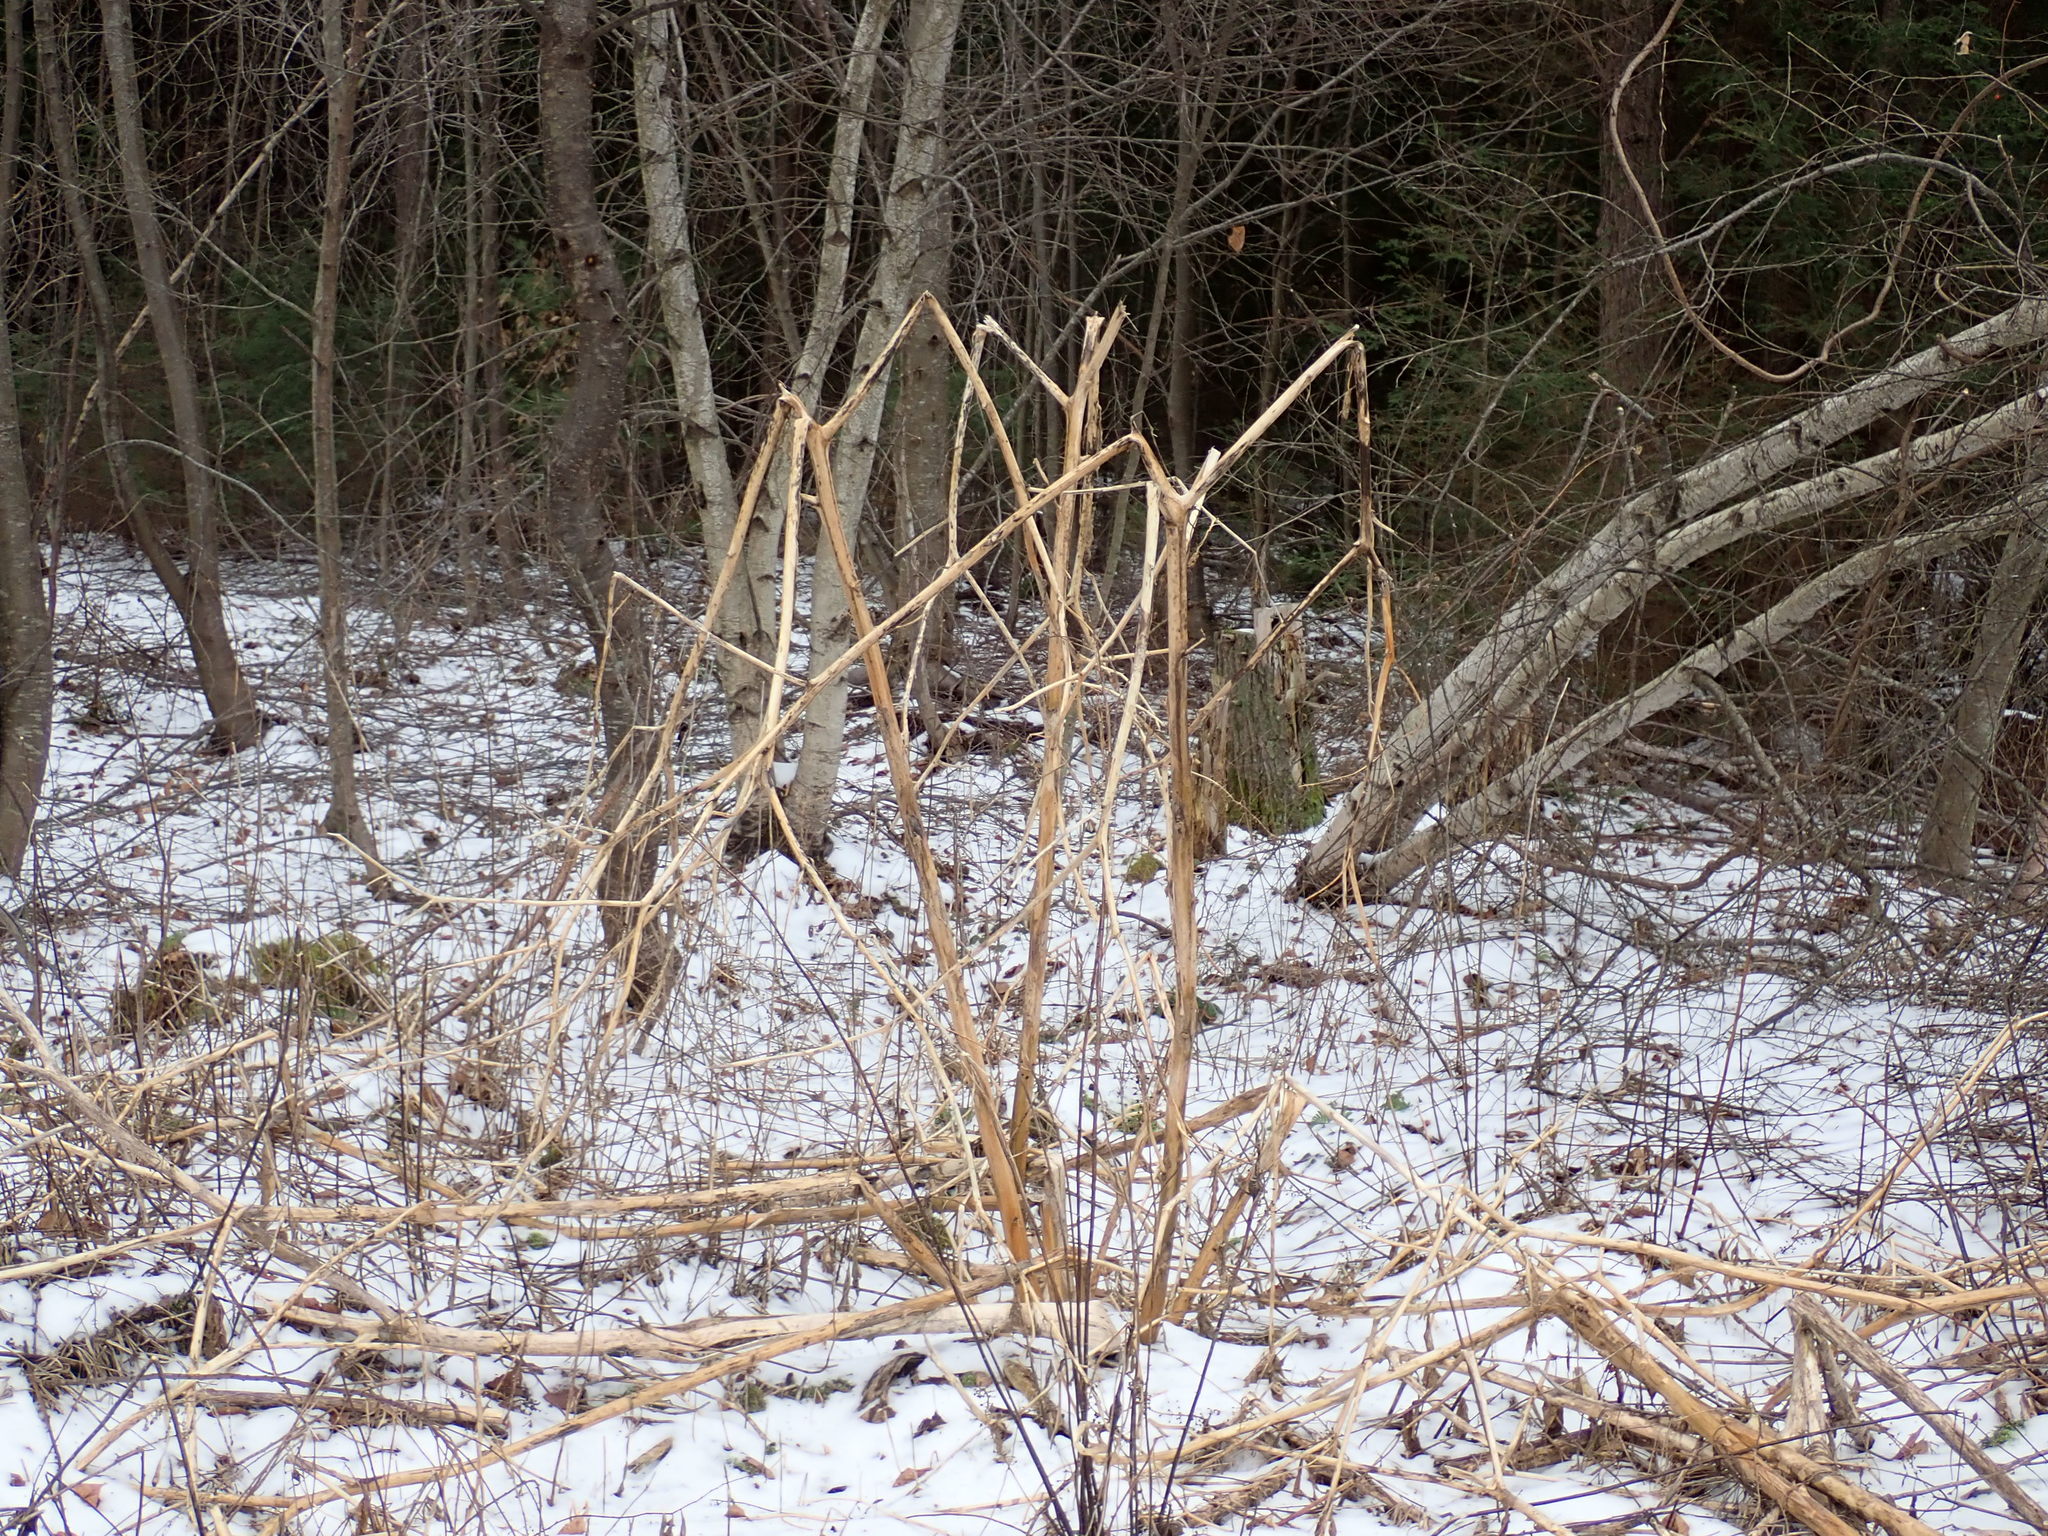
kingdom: Plantae
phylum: Tracheophyta
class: Magnoliopsida
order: Caryophyllales
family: Phytolaccaceae
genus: Phytolacca
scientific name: Phytolacca americana
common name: American pokeweed
